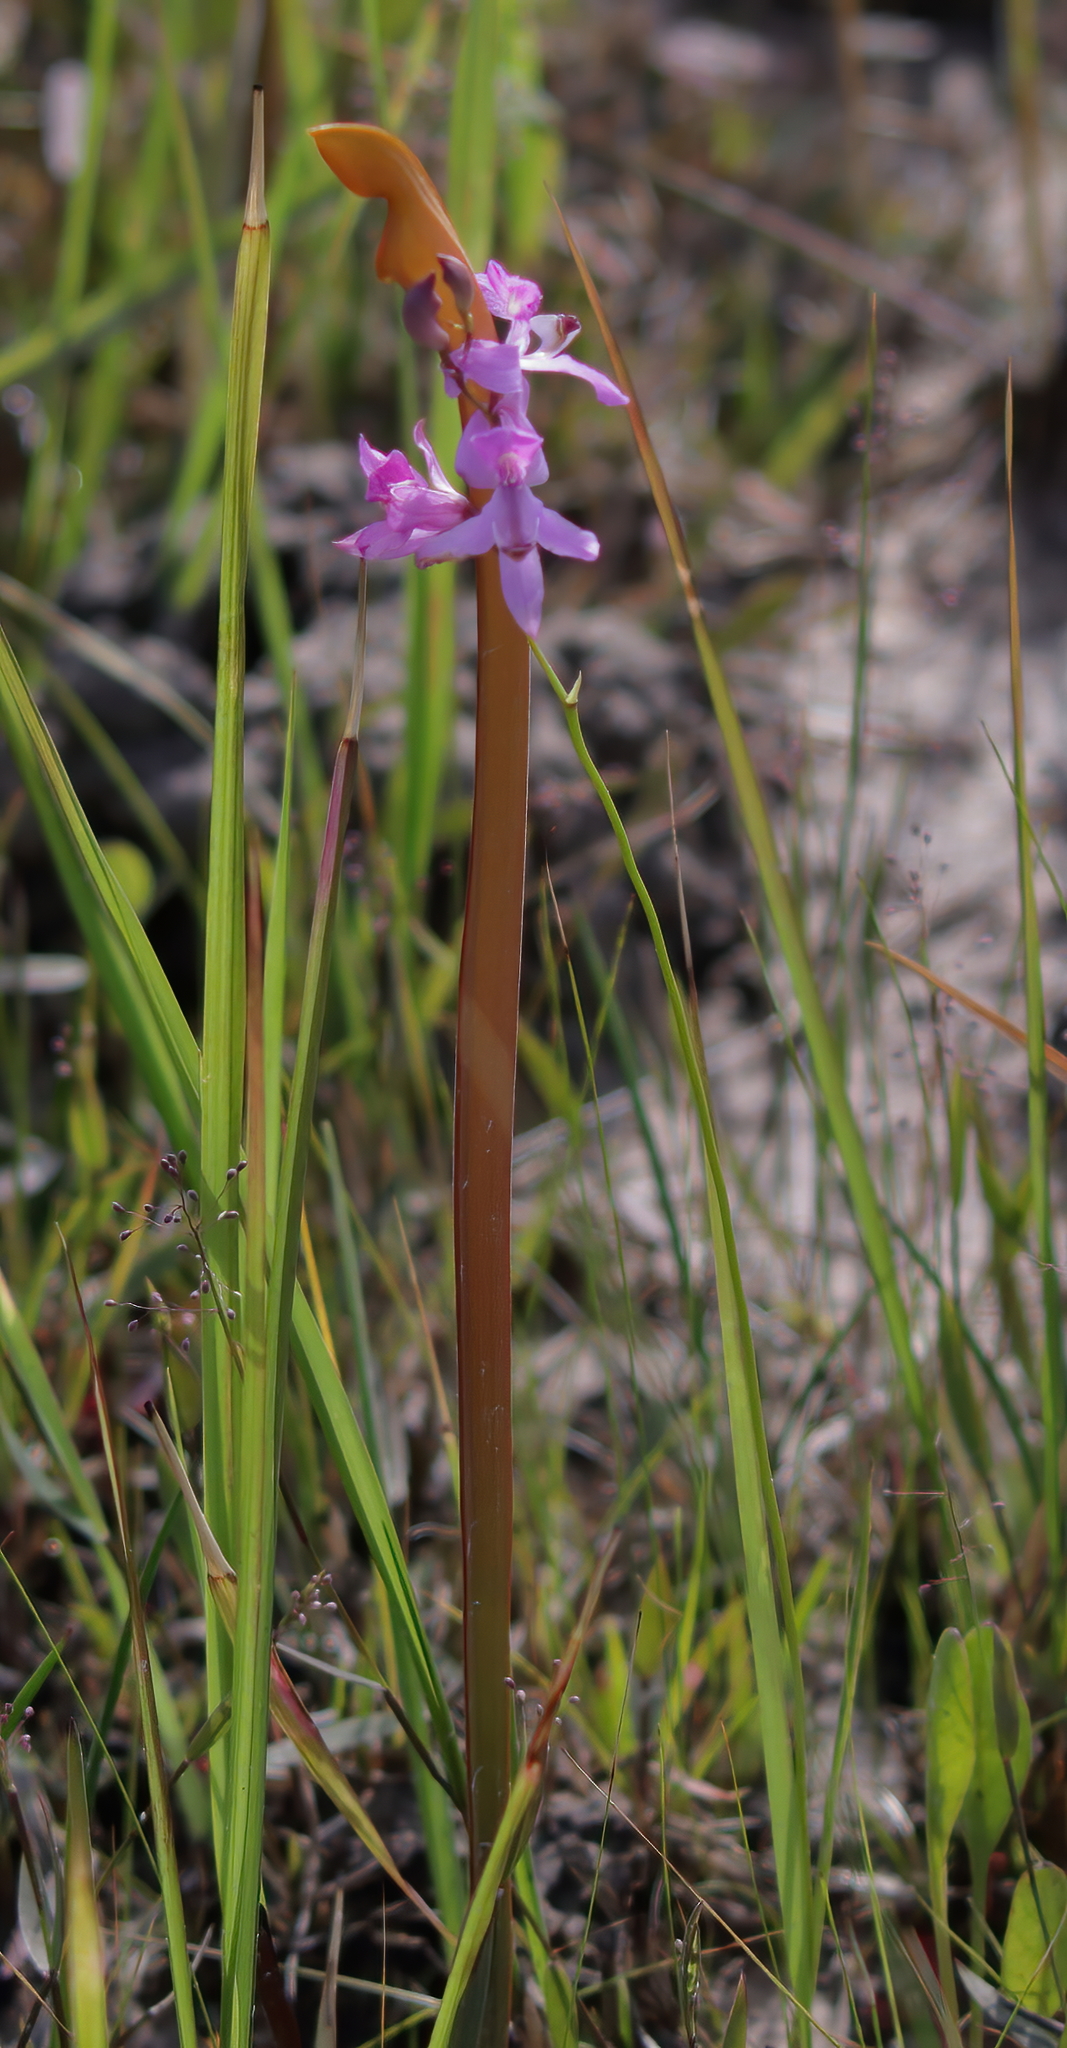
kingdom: Plantae
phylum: Tracheophyta
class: Liliopsida
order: Asparagales
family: Orchidaceae
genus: Calopogon
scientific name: Calopogon pallidus
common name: Pale grasspink
